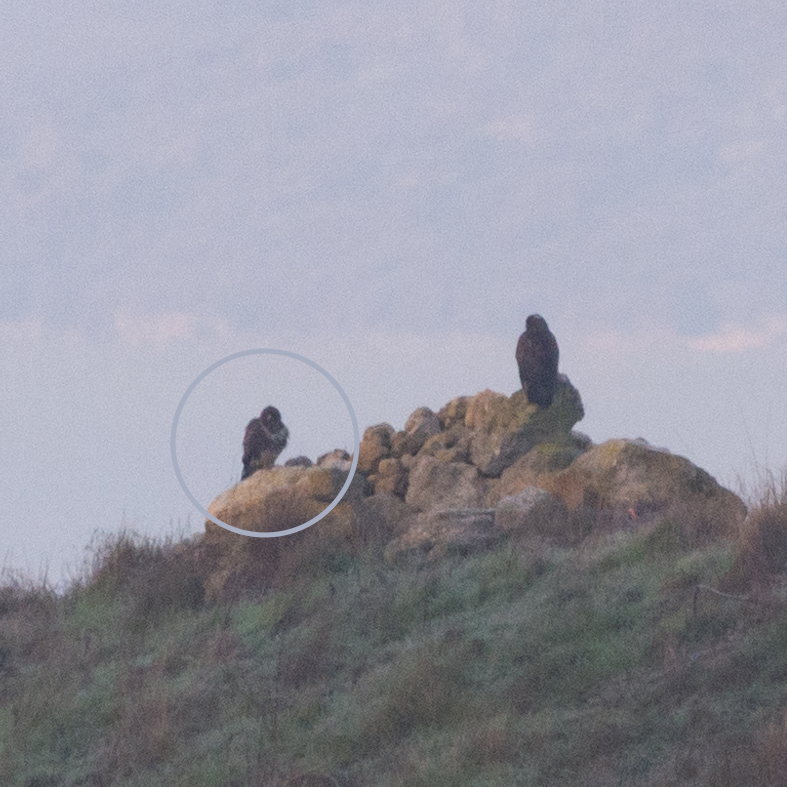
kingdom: Animalia
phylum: Chordata
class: Aves
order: Accipitriformes
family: Accipitridae
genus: Buteo
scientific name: Buteo buteo
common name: Common buzzard
